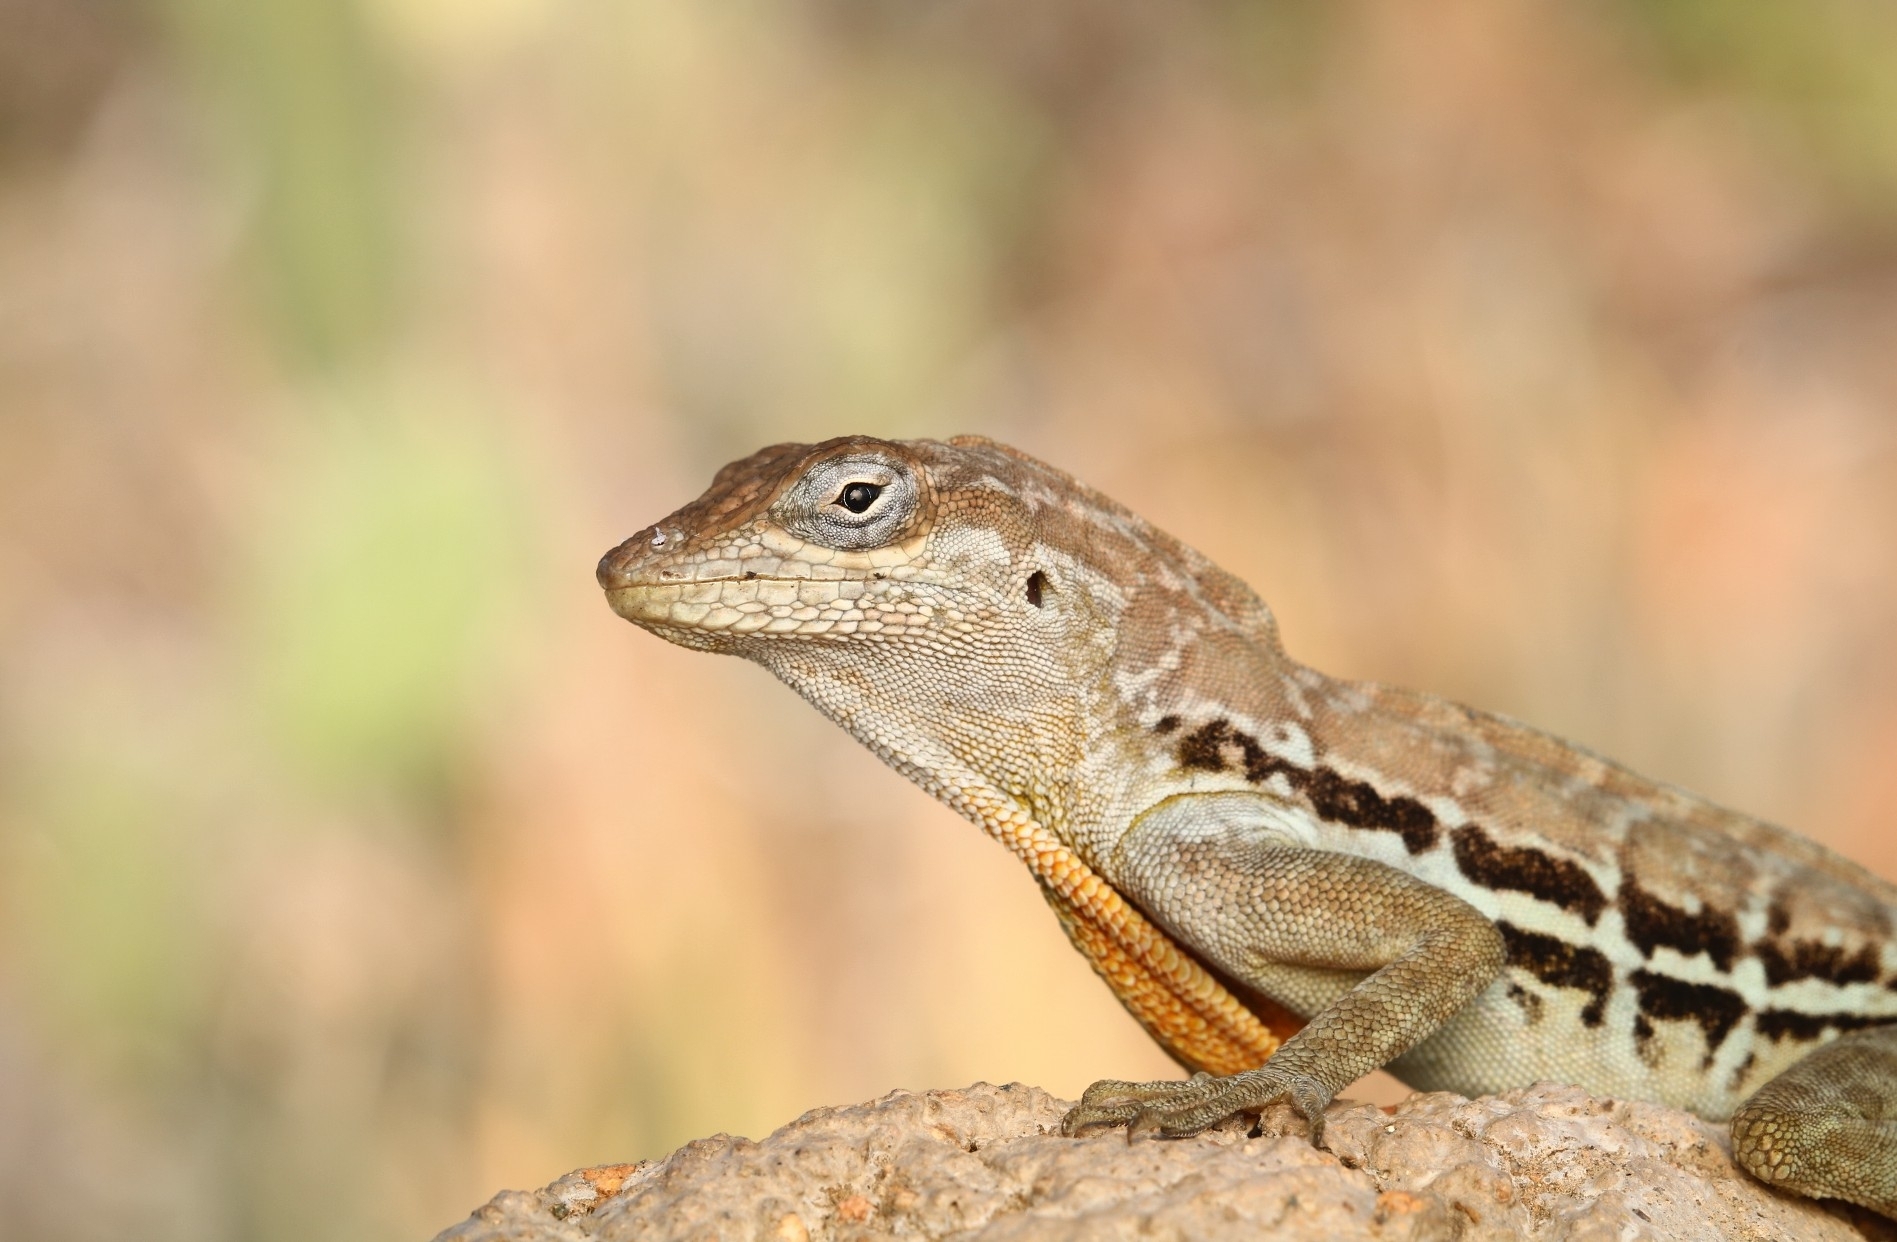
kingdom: Animalia
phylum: Chordata
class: Squamata
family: Dactyloidae
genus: Anolis
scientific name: Anolis lineatus
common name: Striped anole
